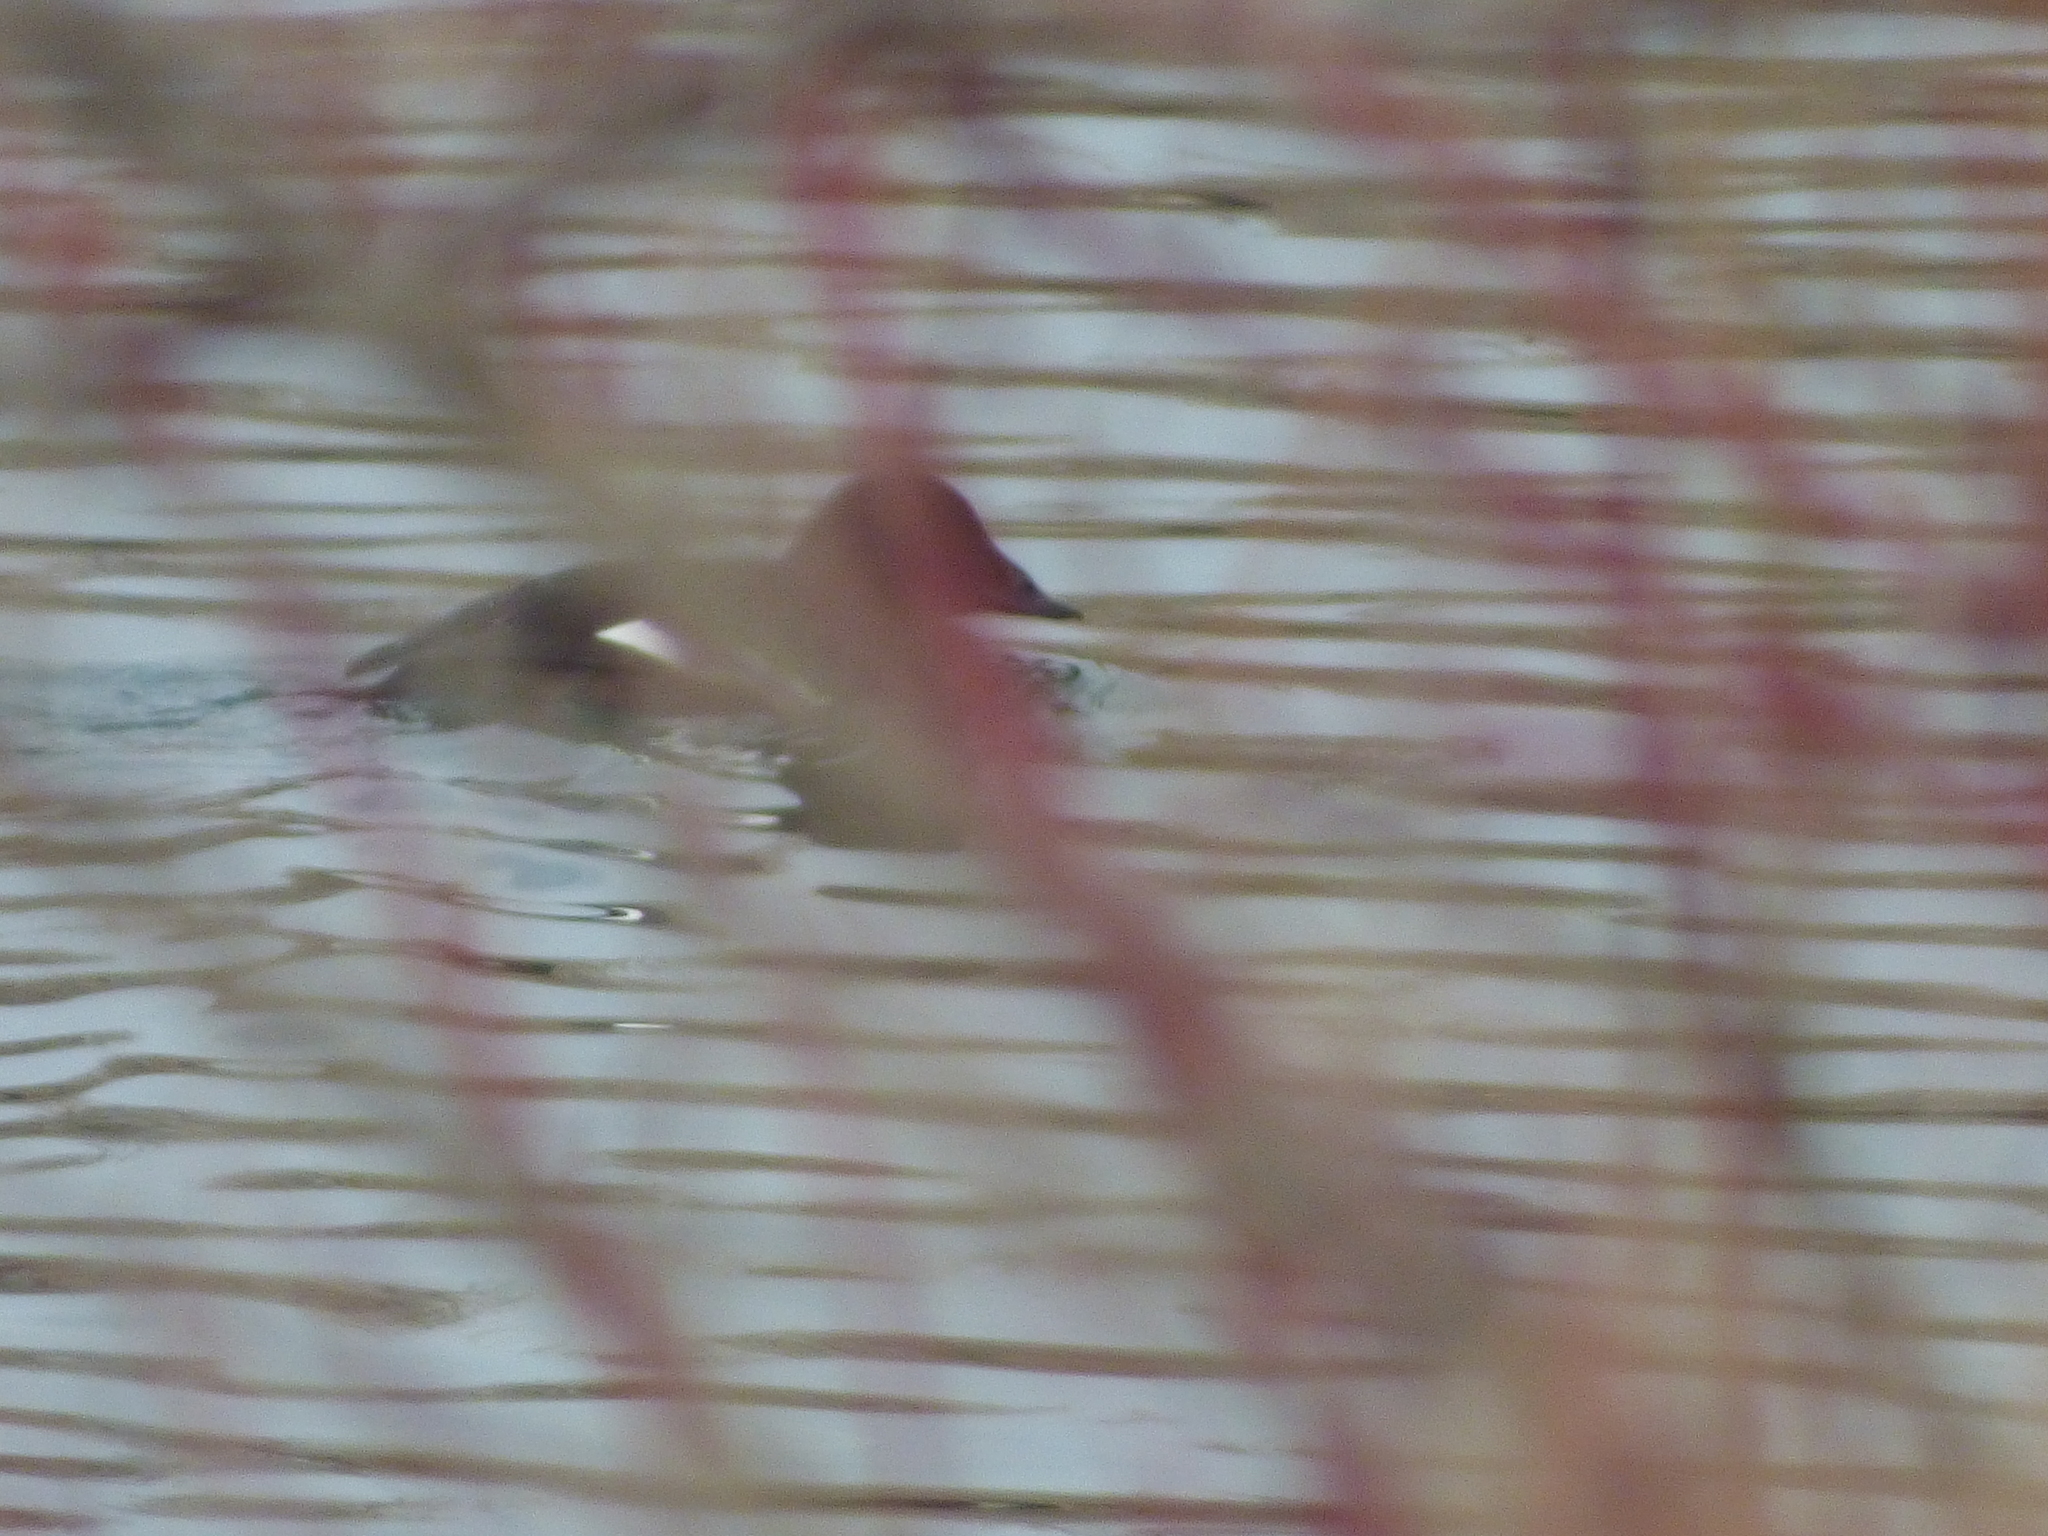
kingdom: Animalia
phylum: Chordata
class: Aves
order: Anseriformes
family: Anatidae
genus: Melanitta
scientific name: Melanitta deglandi
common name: White-winged scoter
